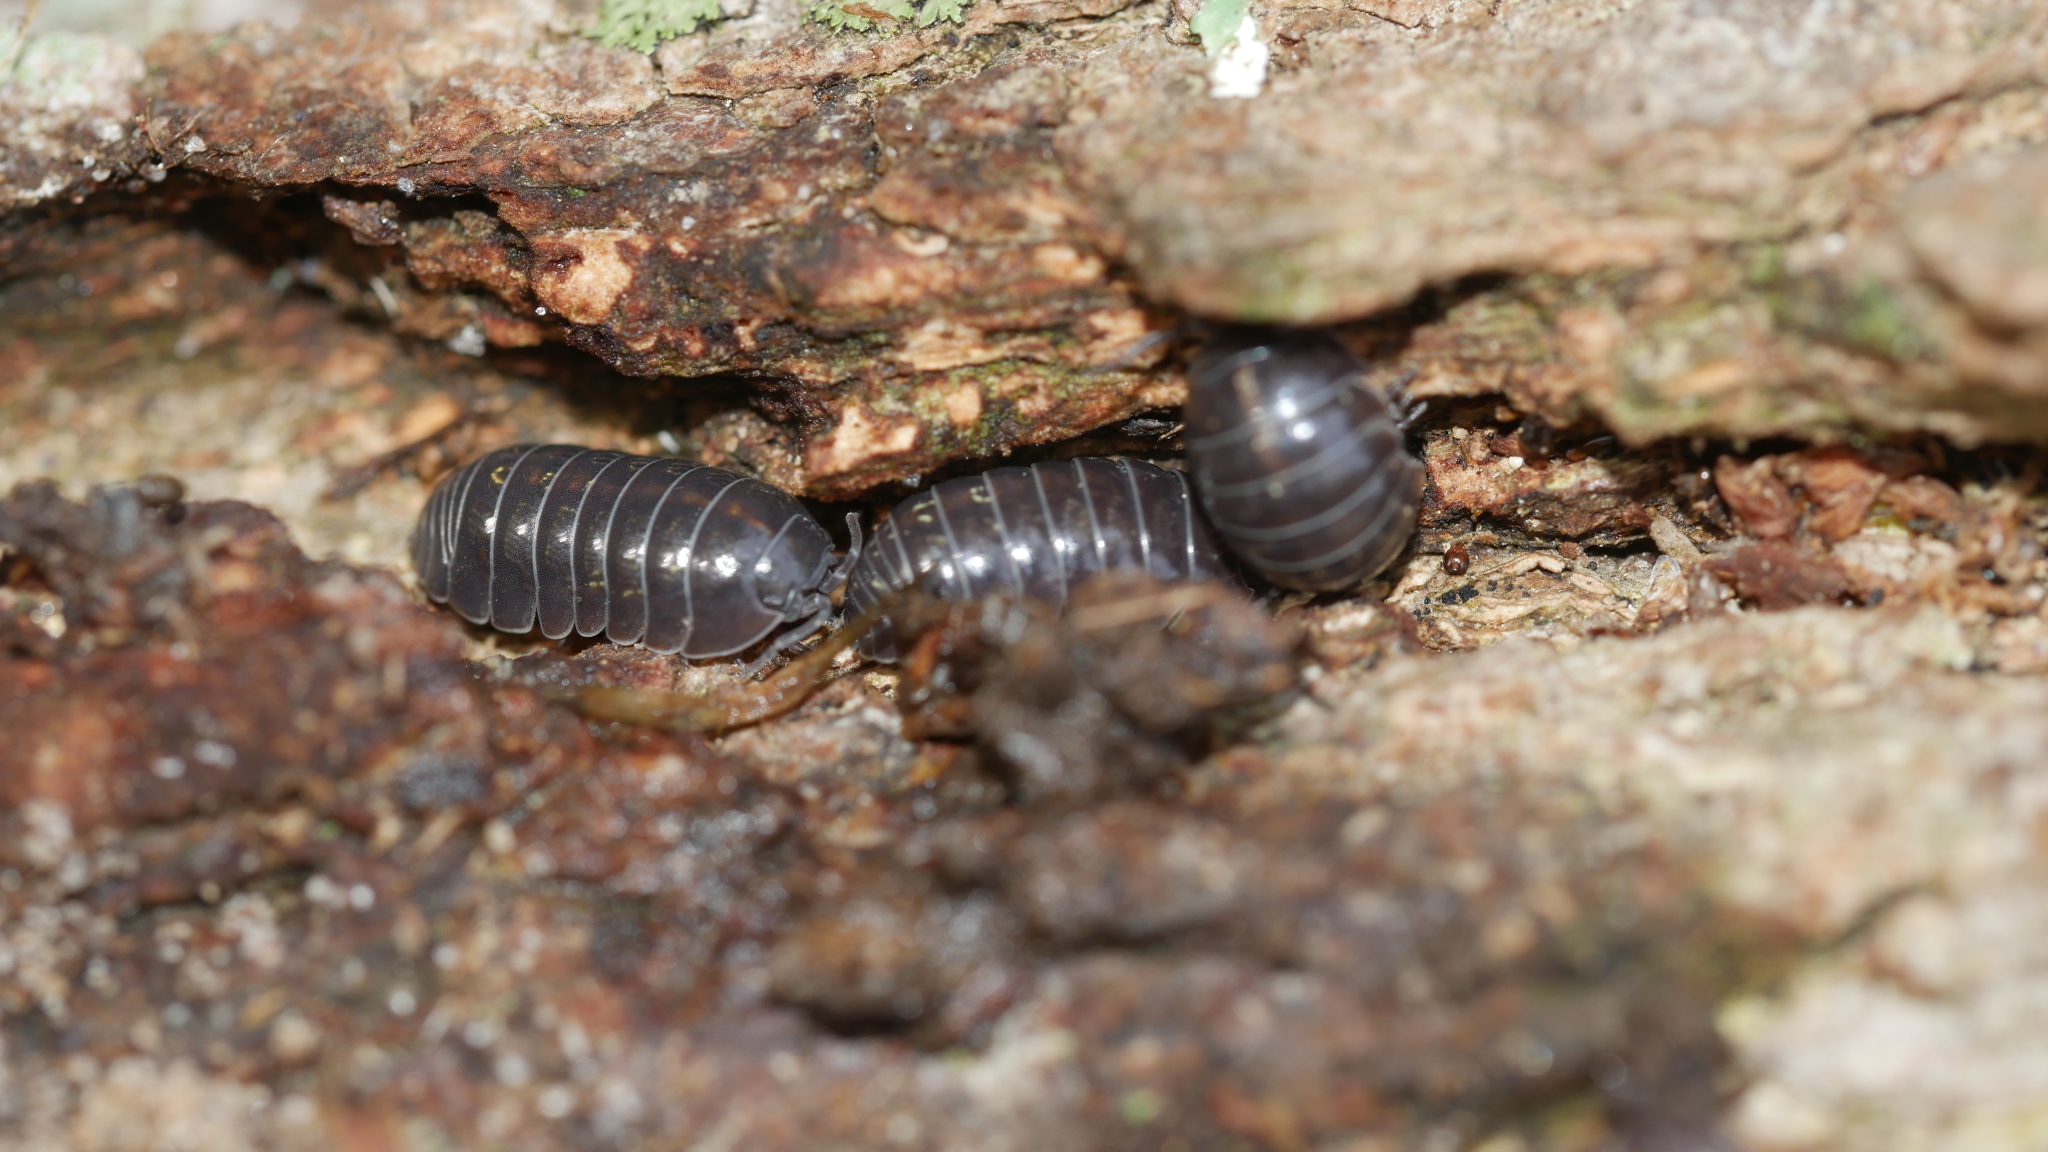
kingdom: Animalia
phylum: Arthropoda
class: Malacostraca
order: Isopoda
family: Armadillidiidae
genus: Armadillidium
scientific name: Armadillidium vulgare
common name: Common pill woodlouse
